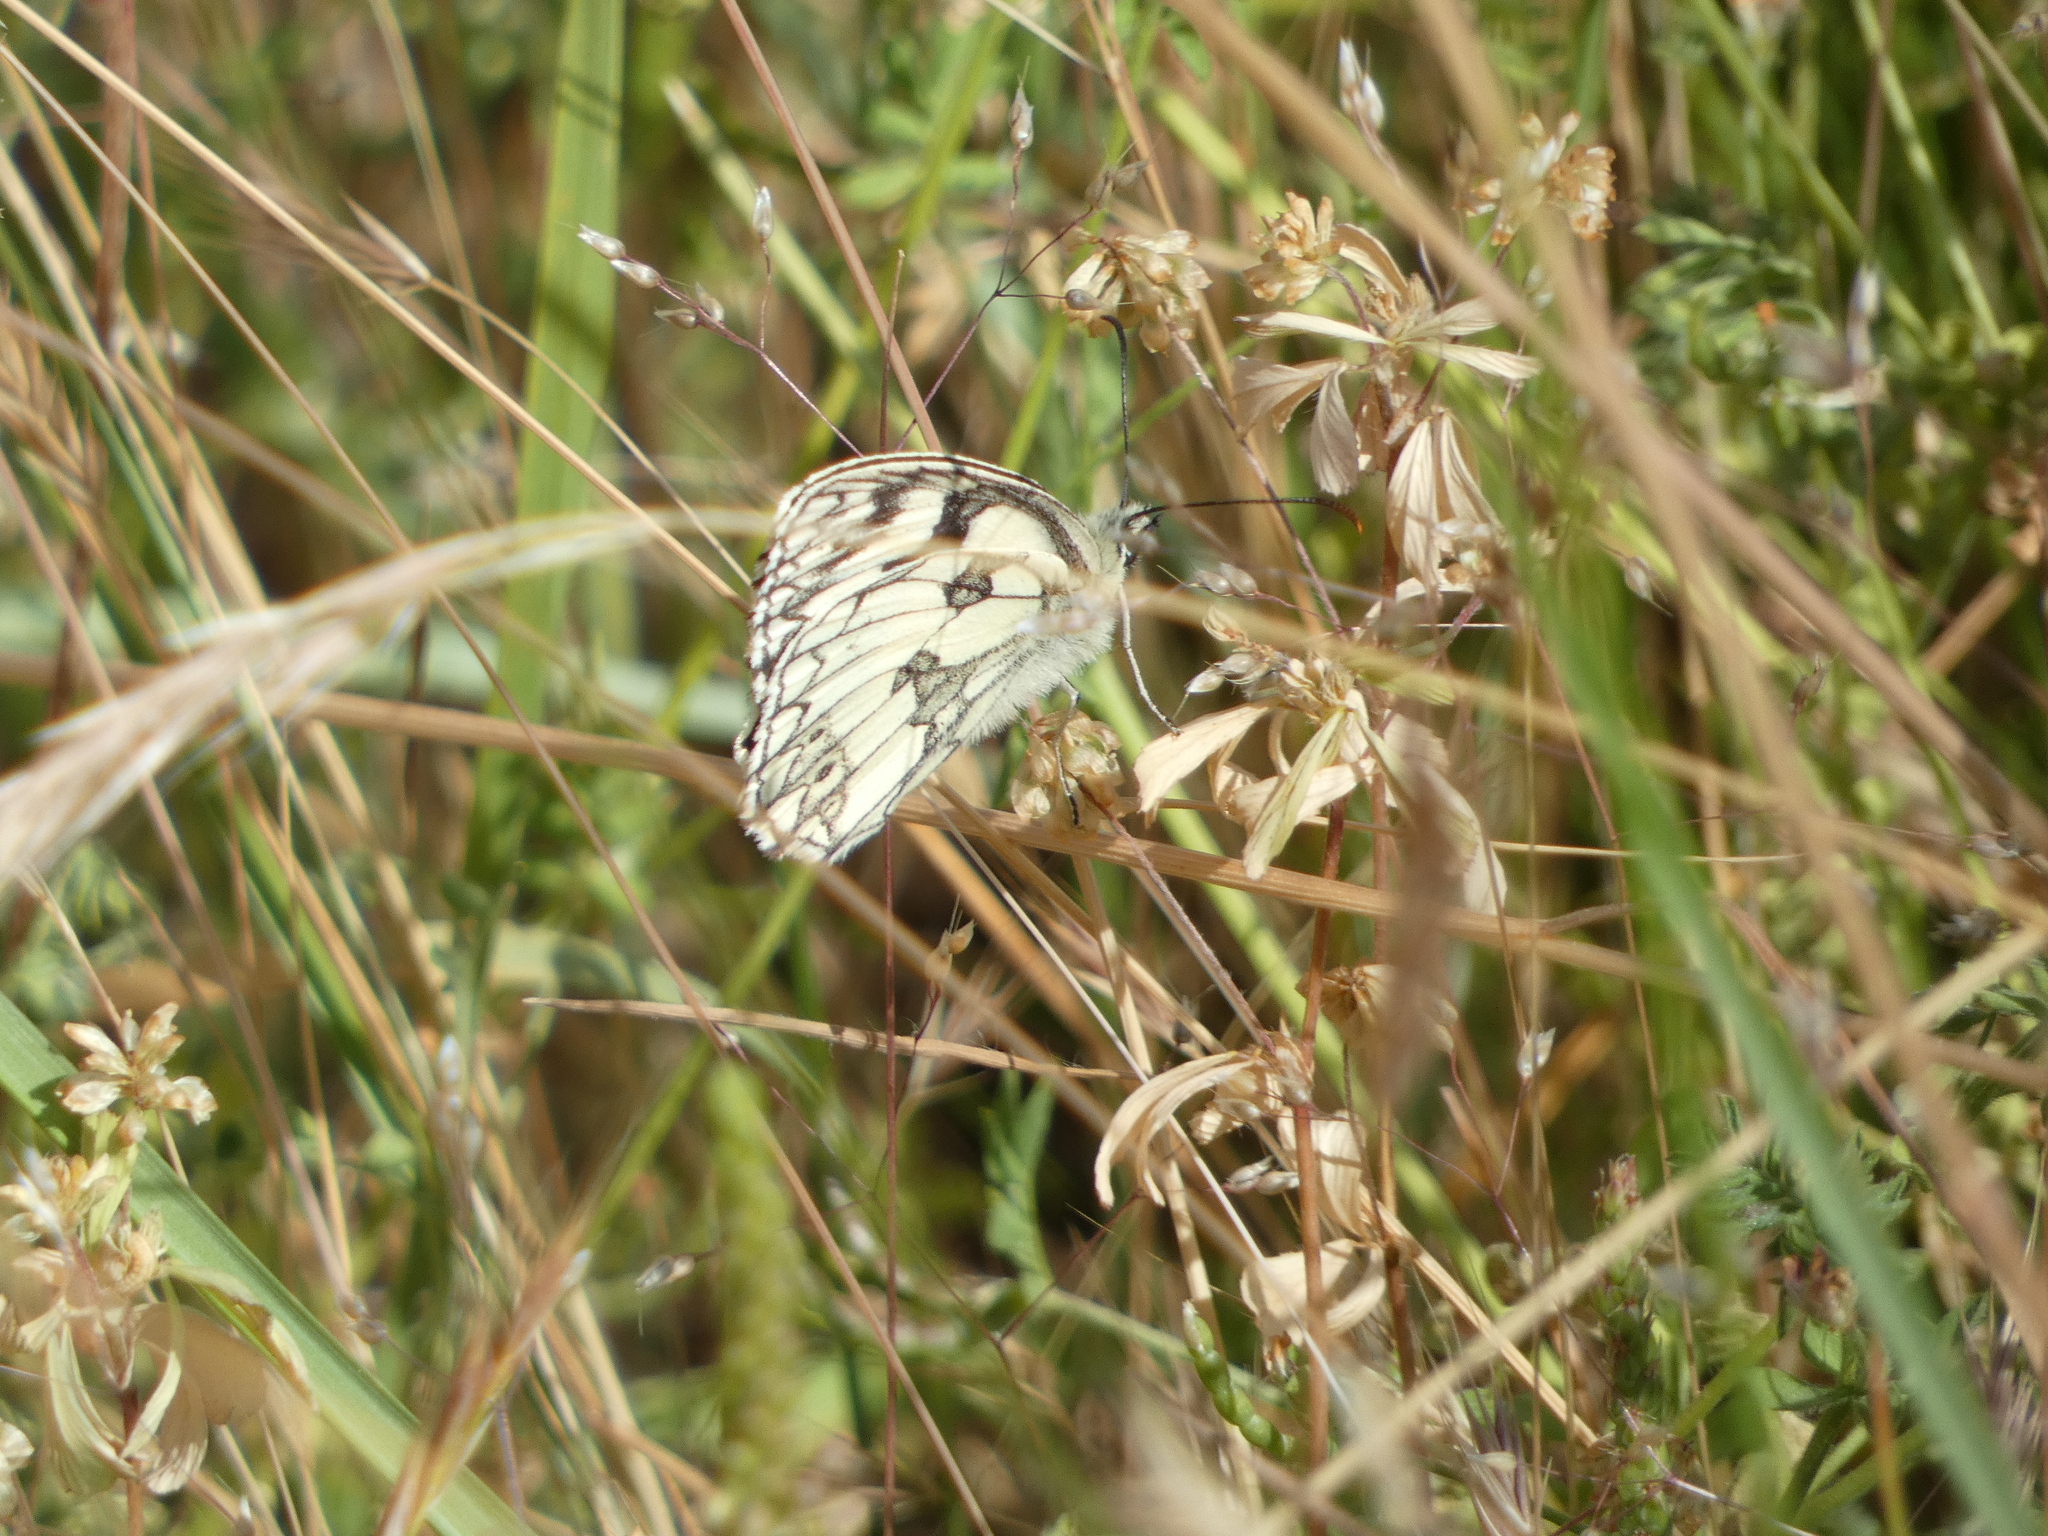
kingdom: Animalia
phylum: Arthropoda
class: Insecta
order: Lepidoptera
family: Nymphalidae
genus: Melanargia
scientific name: Melanargia galathea
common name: Marbled white
